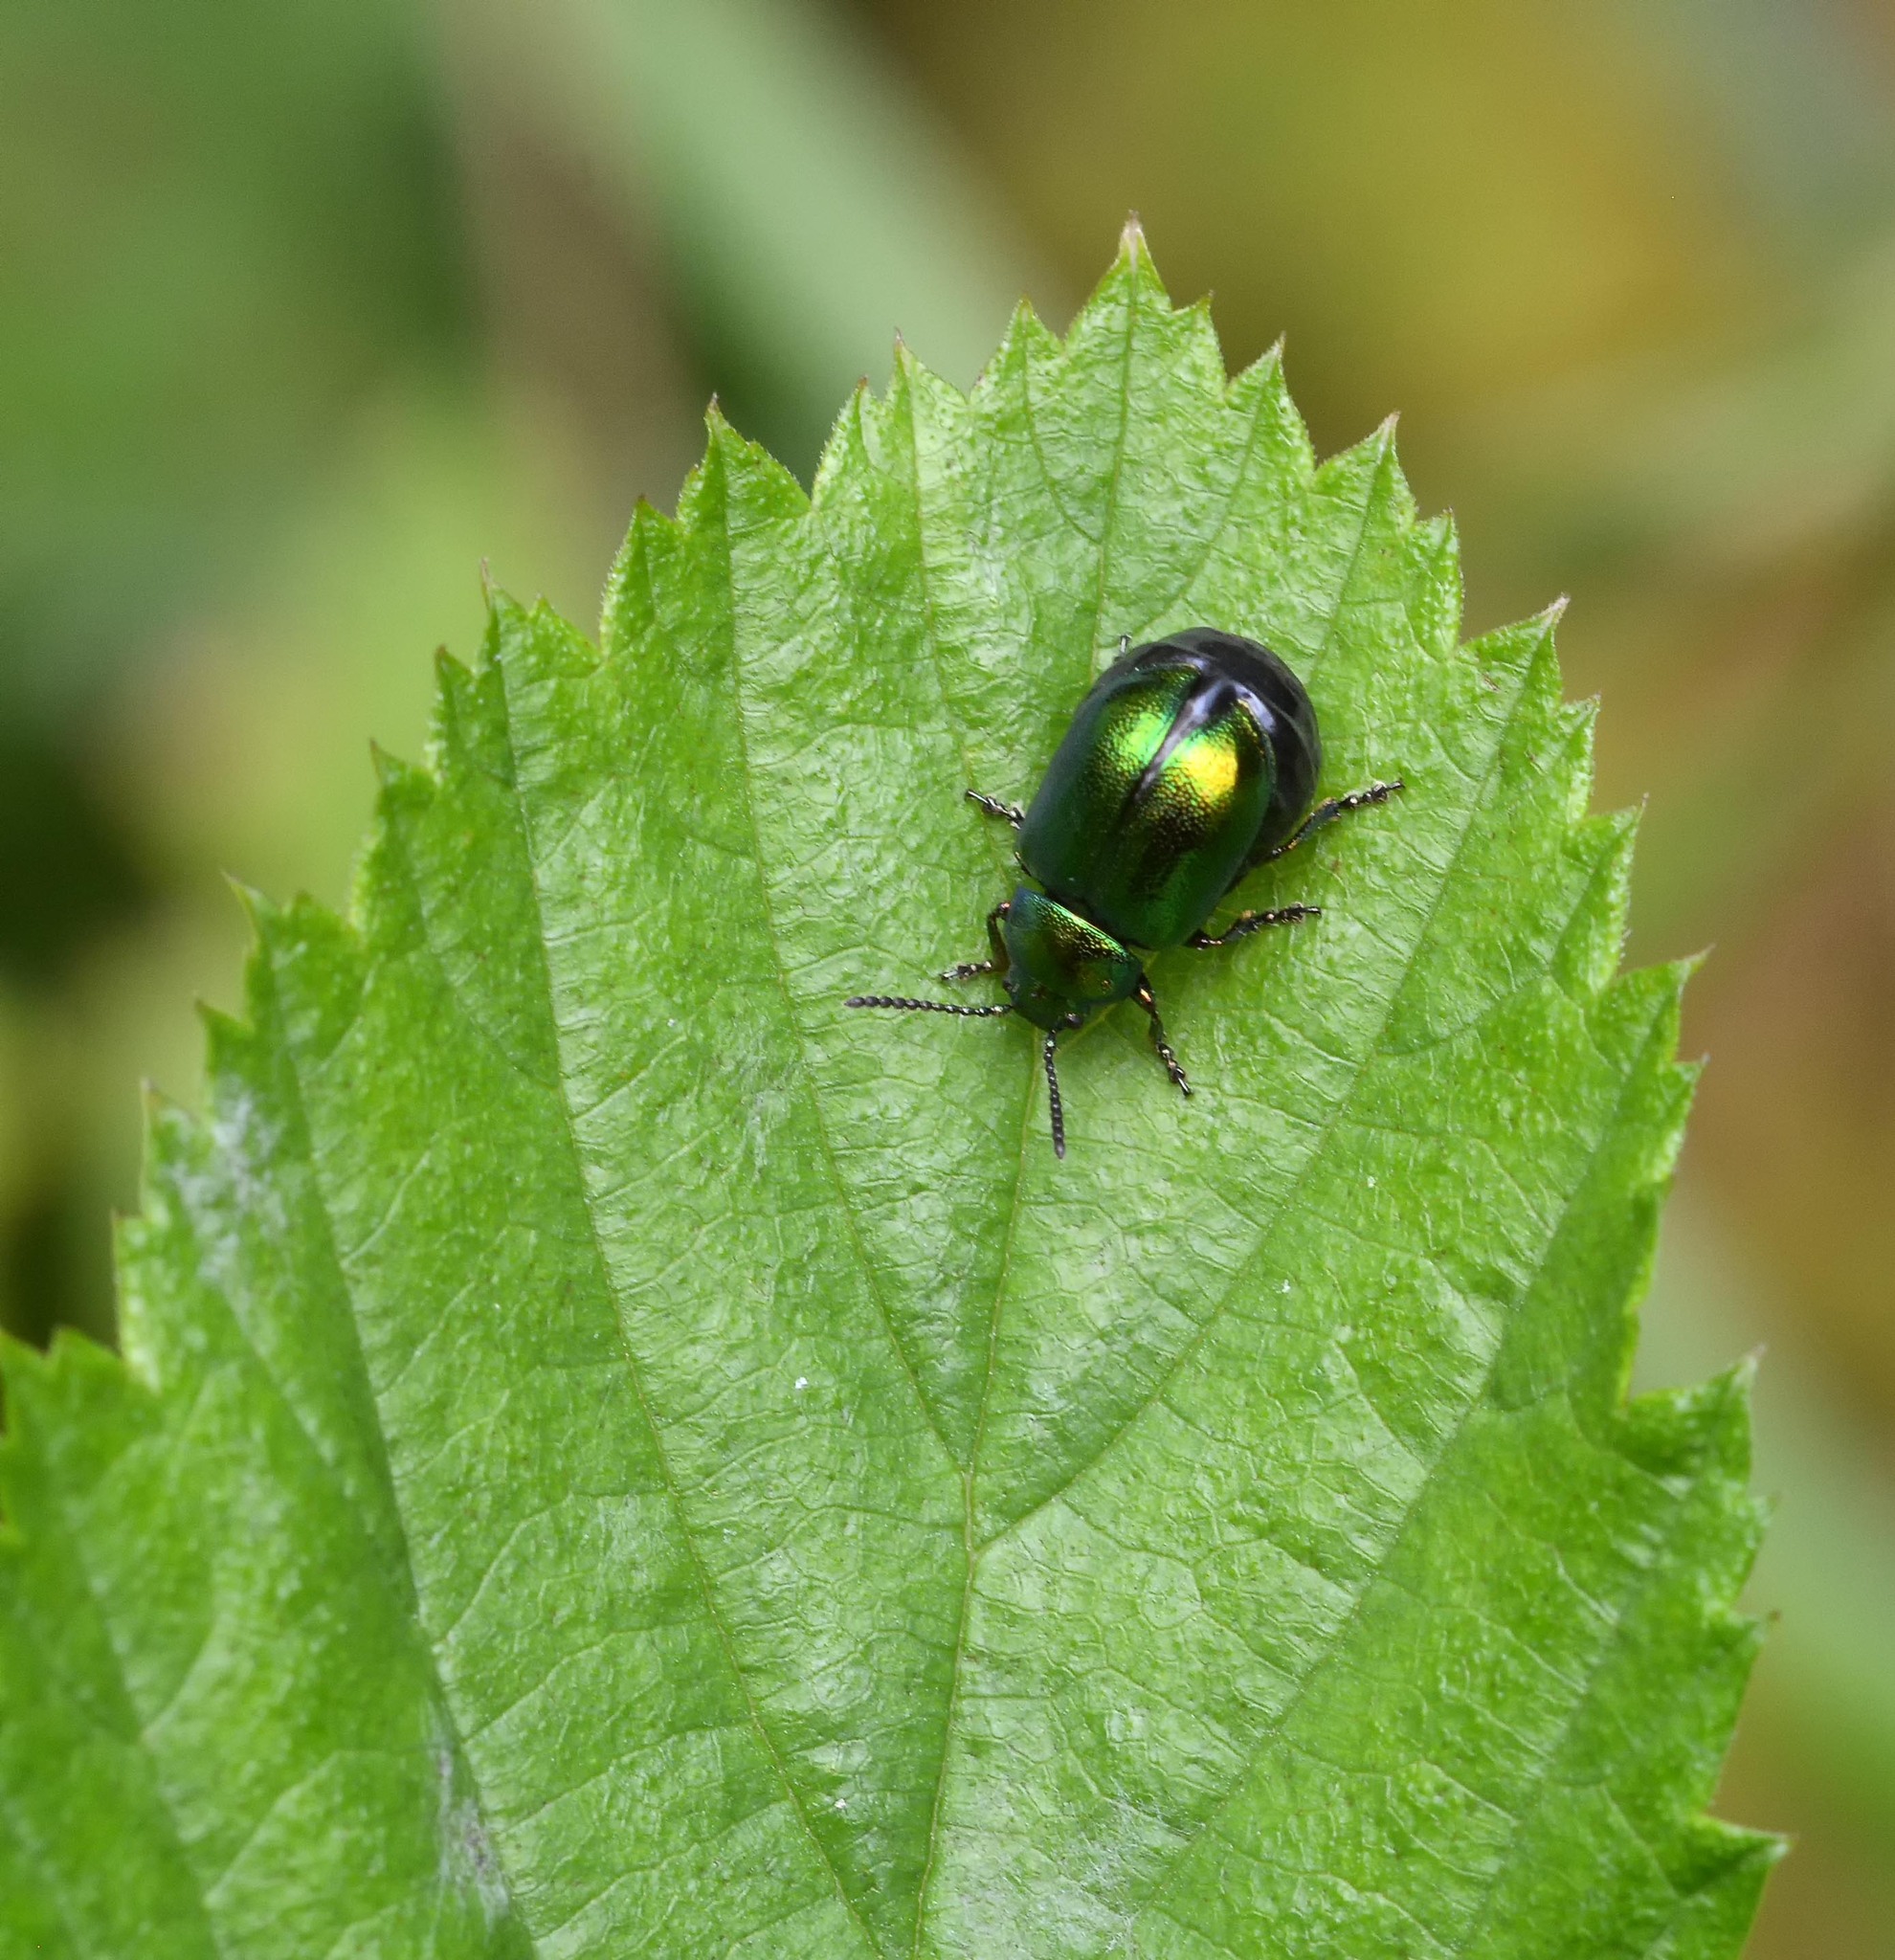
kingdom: Animalia
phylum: Arthropoda
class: Insecta
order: Coleoptera
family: Chrysomelidae
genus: Gastrophysa
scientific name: Gastrophysa viridula
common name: Green dock beetle
